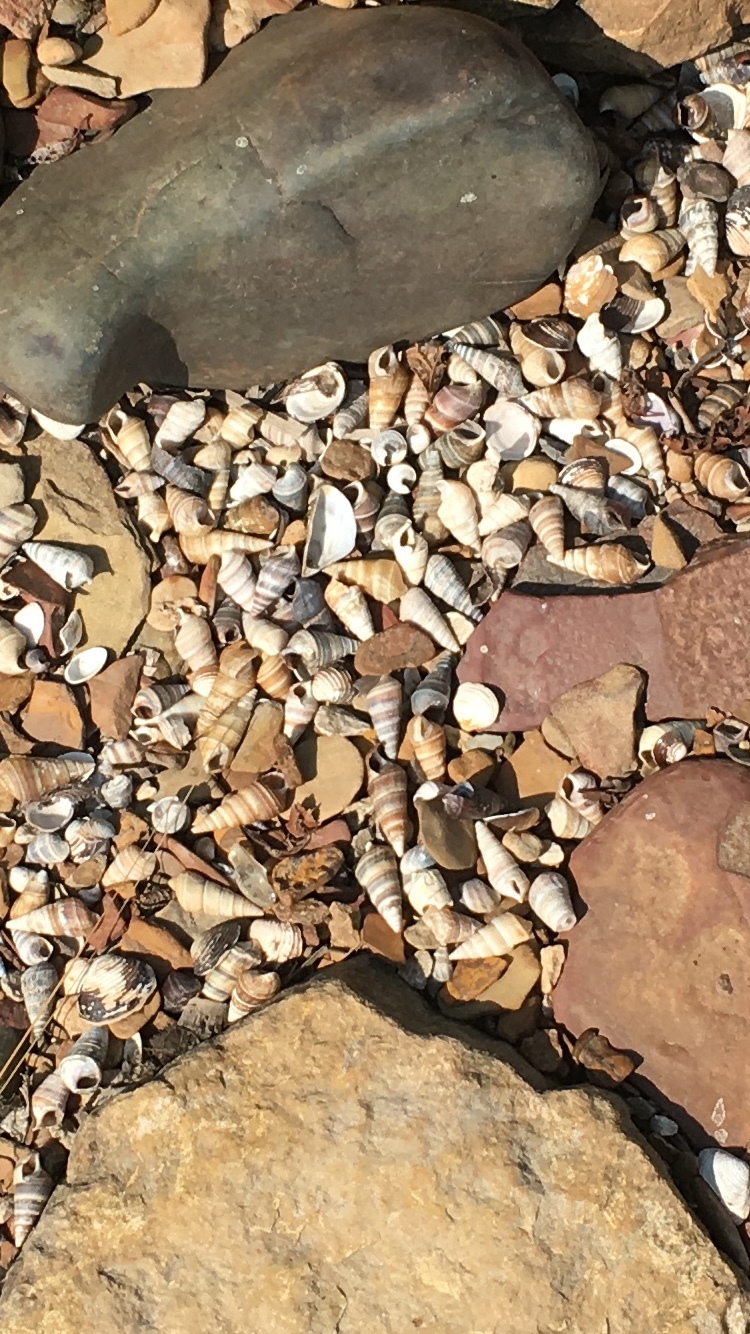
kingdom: Animalia
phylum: Mollusca
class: Gastropoda
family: Pleuroceridae
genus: Pleurocera
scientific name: Pleurocera acuta
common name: Sharp hornsnail
